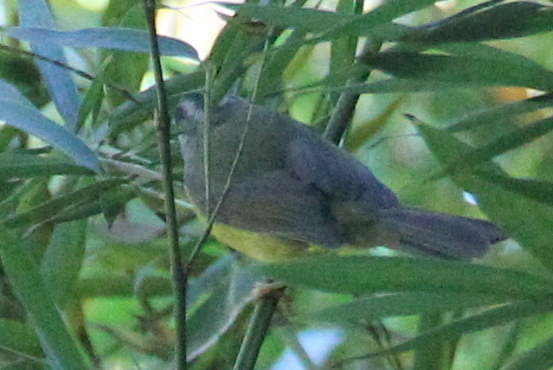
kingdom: Animalia
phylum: Chordata
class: Aves
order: Passeriformes
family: Parulidae
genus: Basileuterus
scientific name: Basileuterus culicivorus
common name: Golden-crowned warbler
